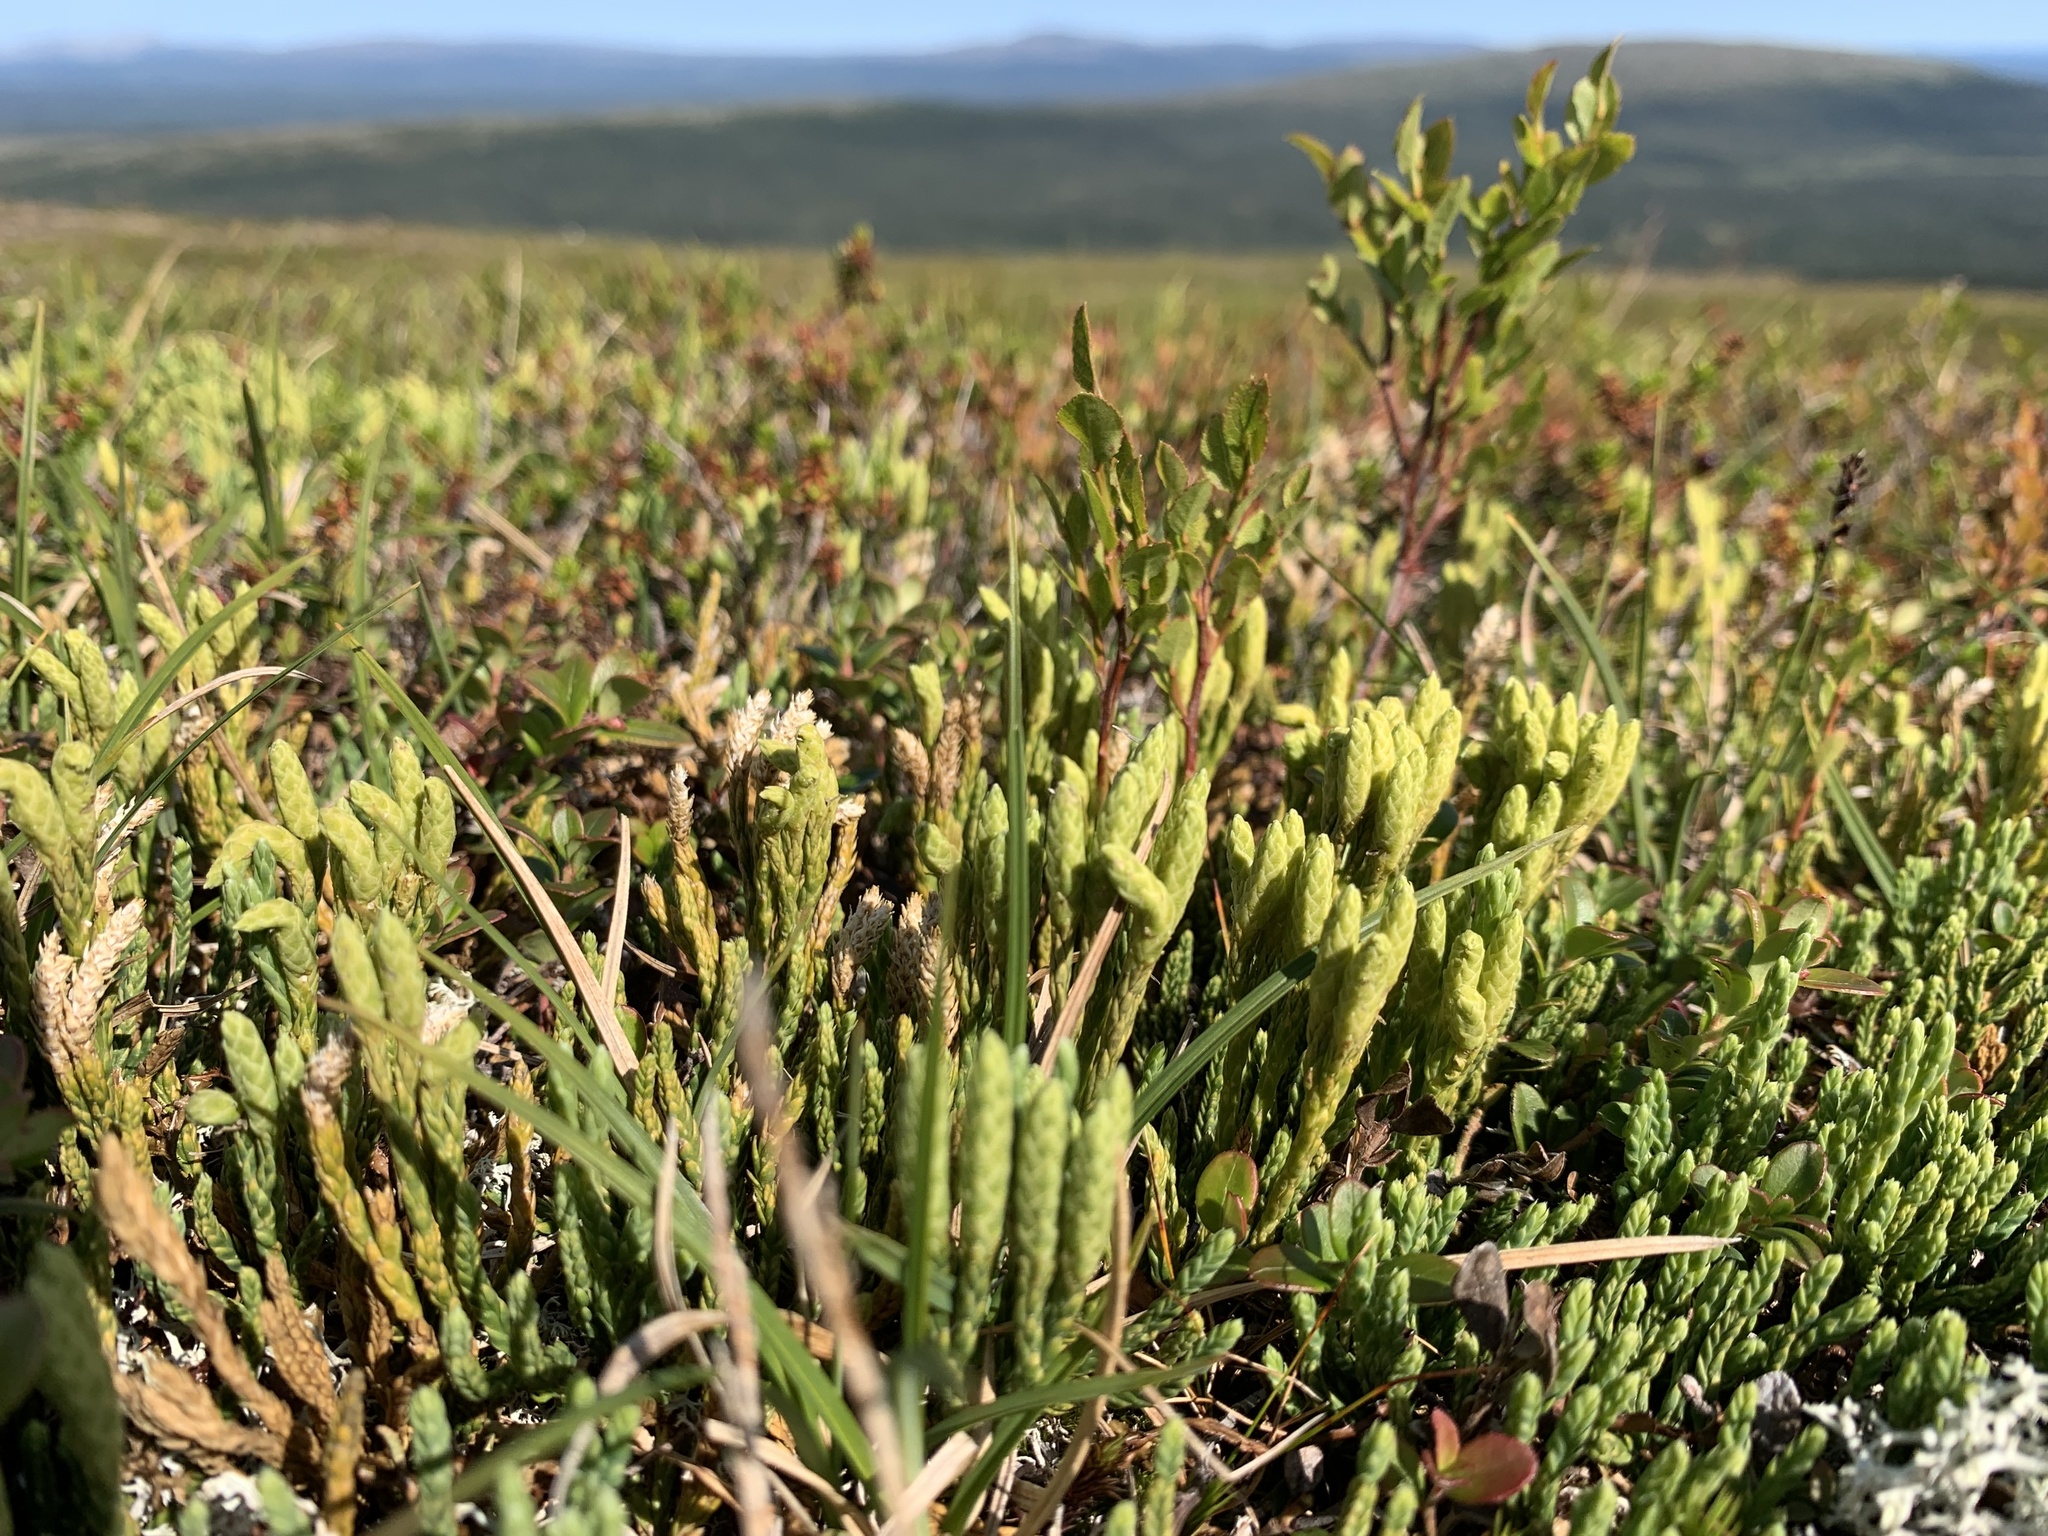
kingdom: Plantae
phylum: Tracheophyta
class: Lycopodiopsida
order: Lycopodiales
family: Lycopodiaceae
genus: Diphasiastrum
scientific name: Diphasiastrum alpinum
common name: Alpine clubmoss
